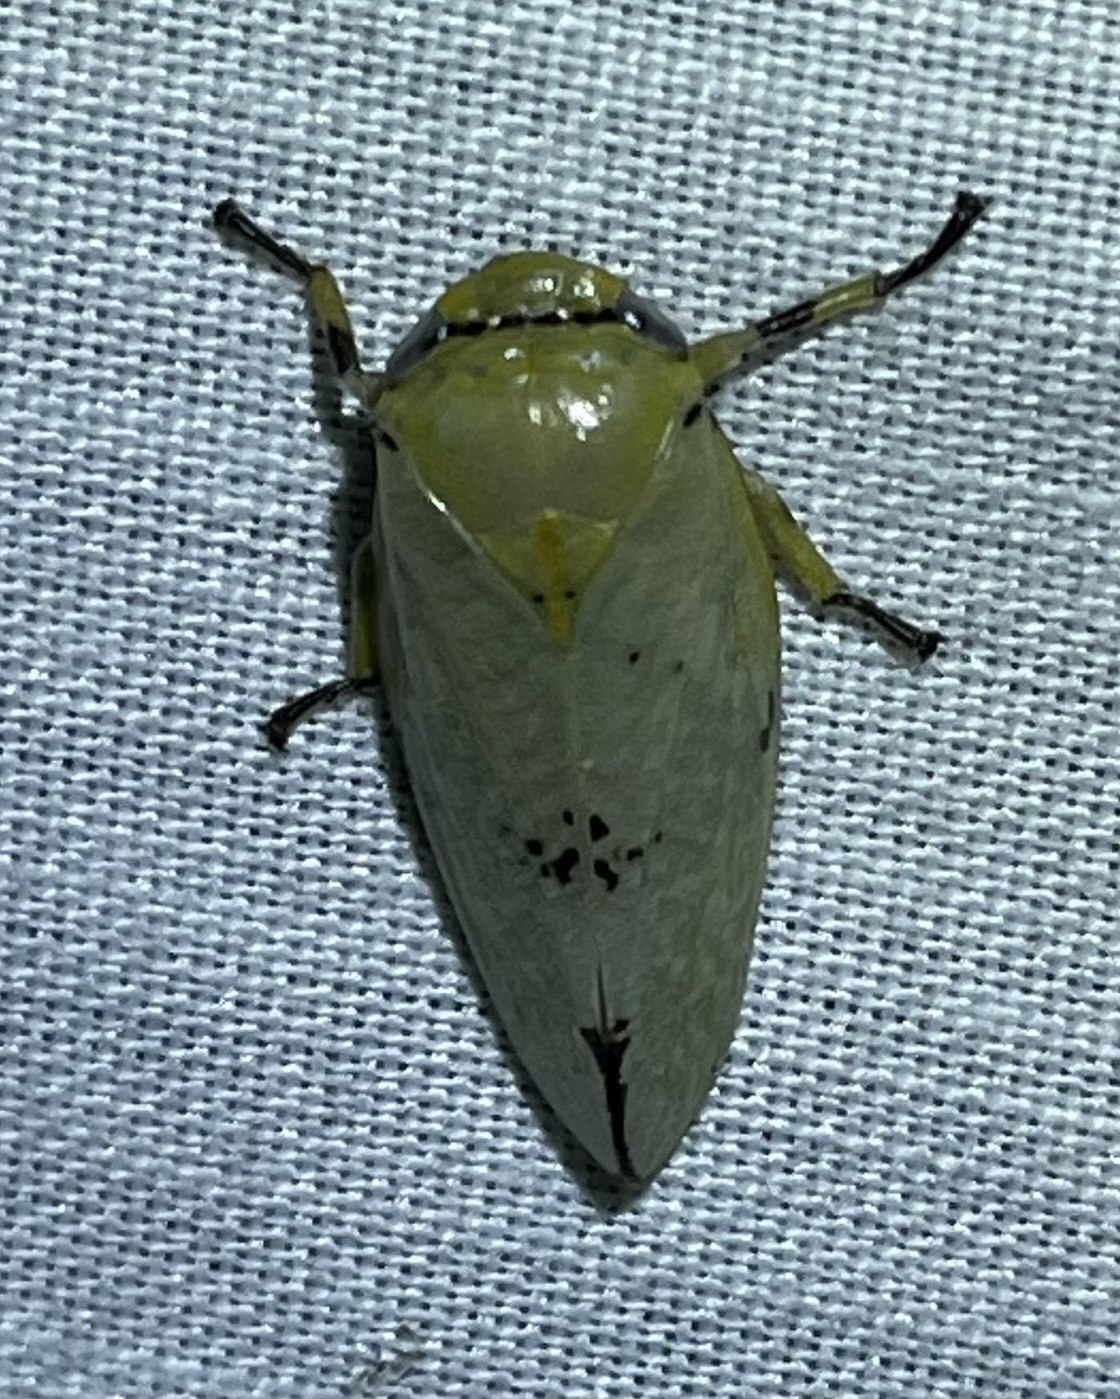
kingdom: Animalia
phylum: Arthropoda
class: Insecta
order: Hemiptera
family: Aphrophoridae
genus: Ptyelus
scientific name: Ptyelus flavescens
